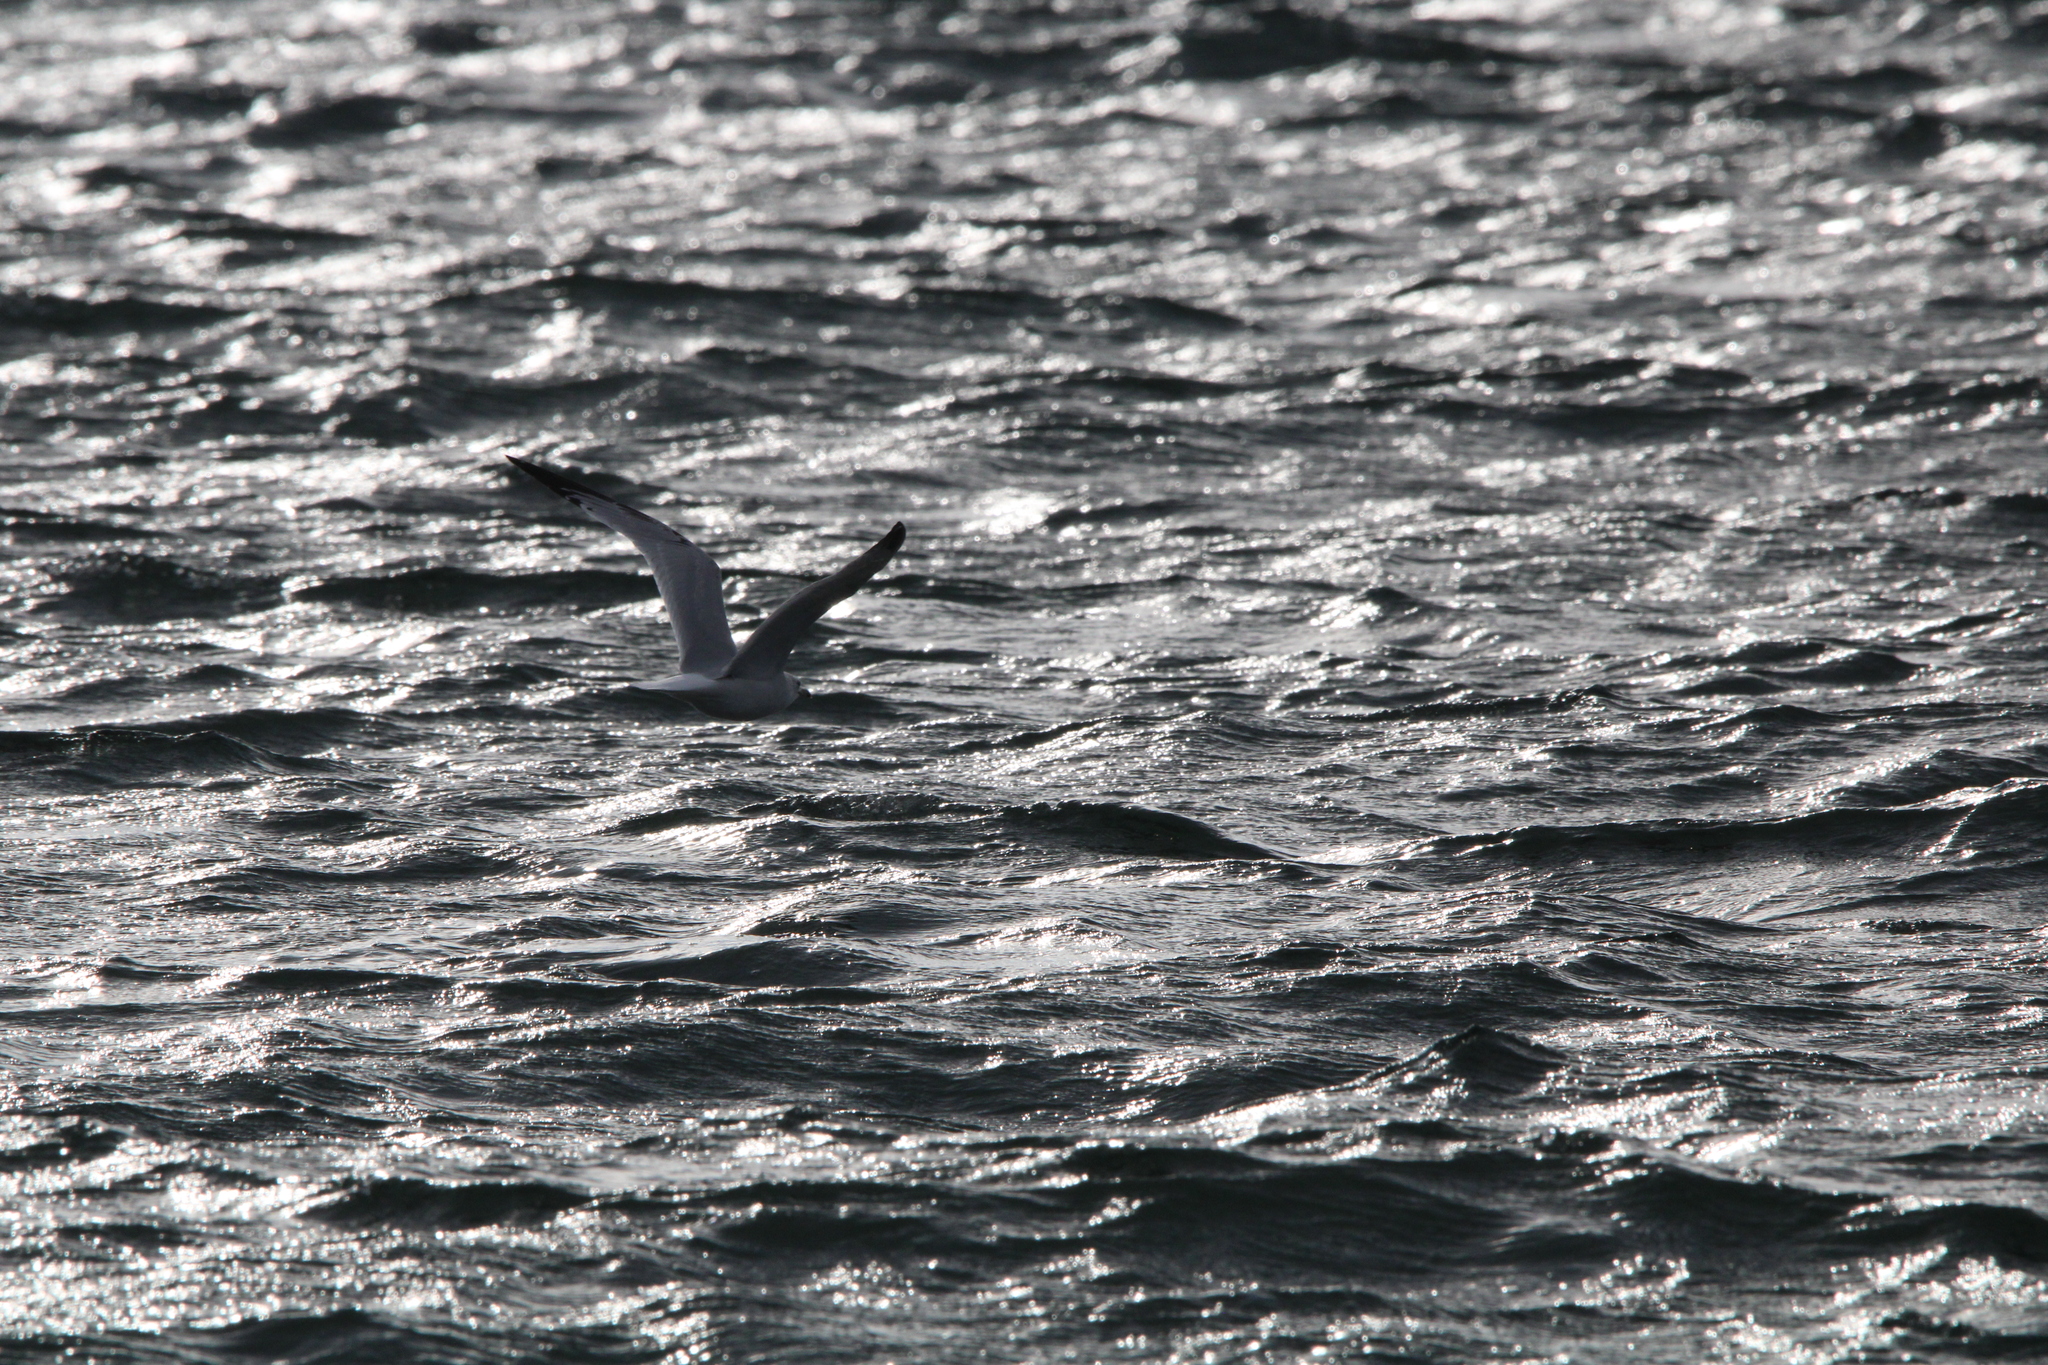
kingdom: Animalia
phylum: Chordata
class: Aves
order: Charadriiformes
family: Laridae
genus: Larus
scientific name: Larus delawarensis
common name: Ring-billed gull
